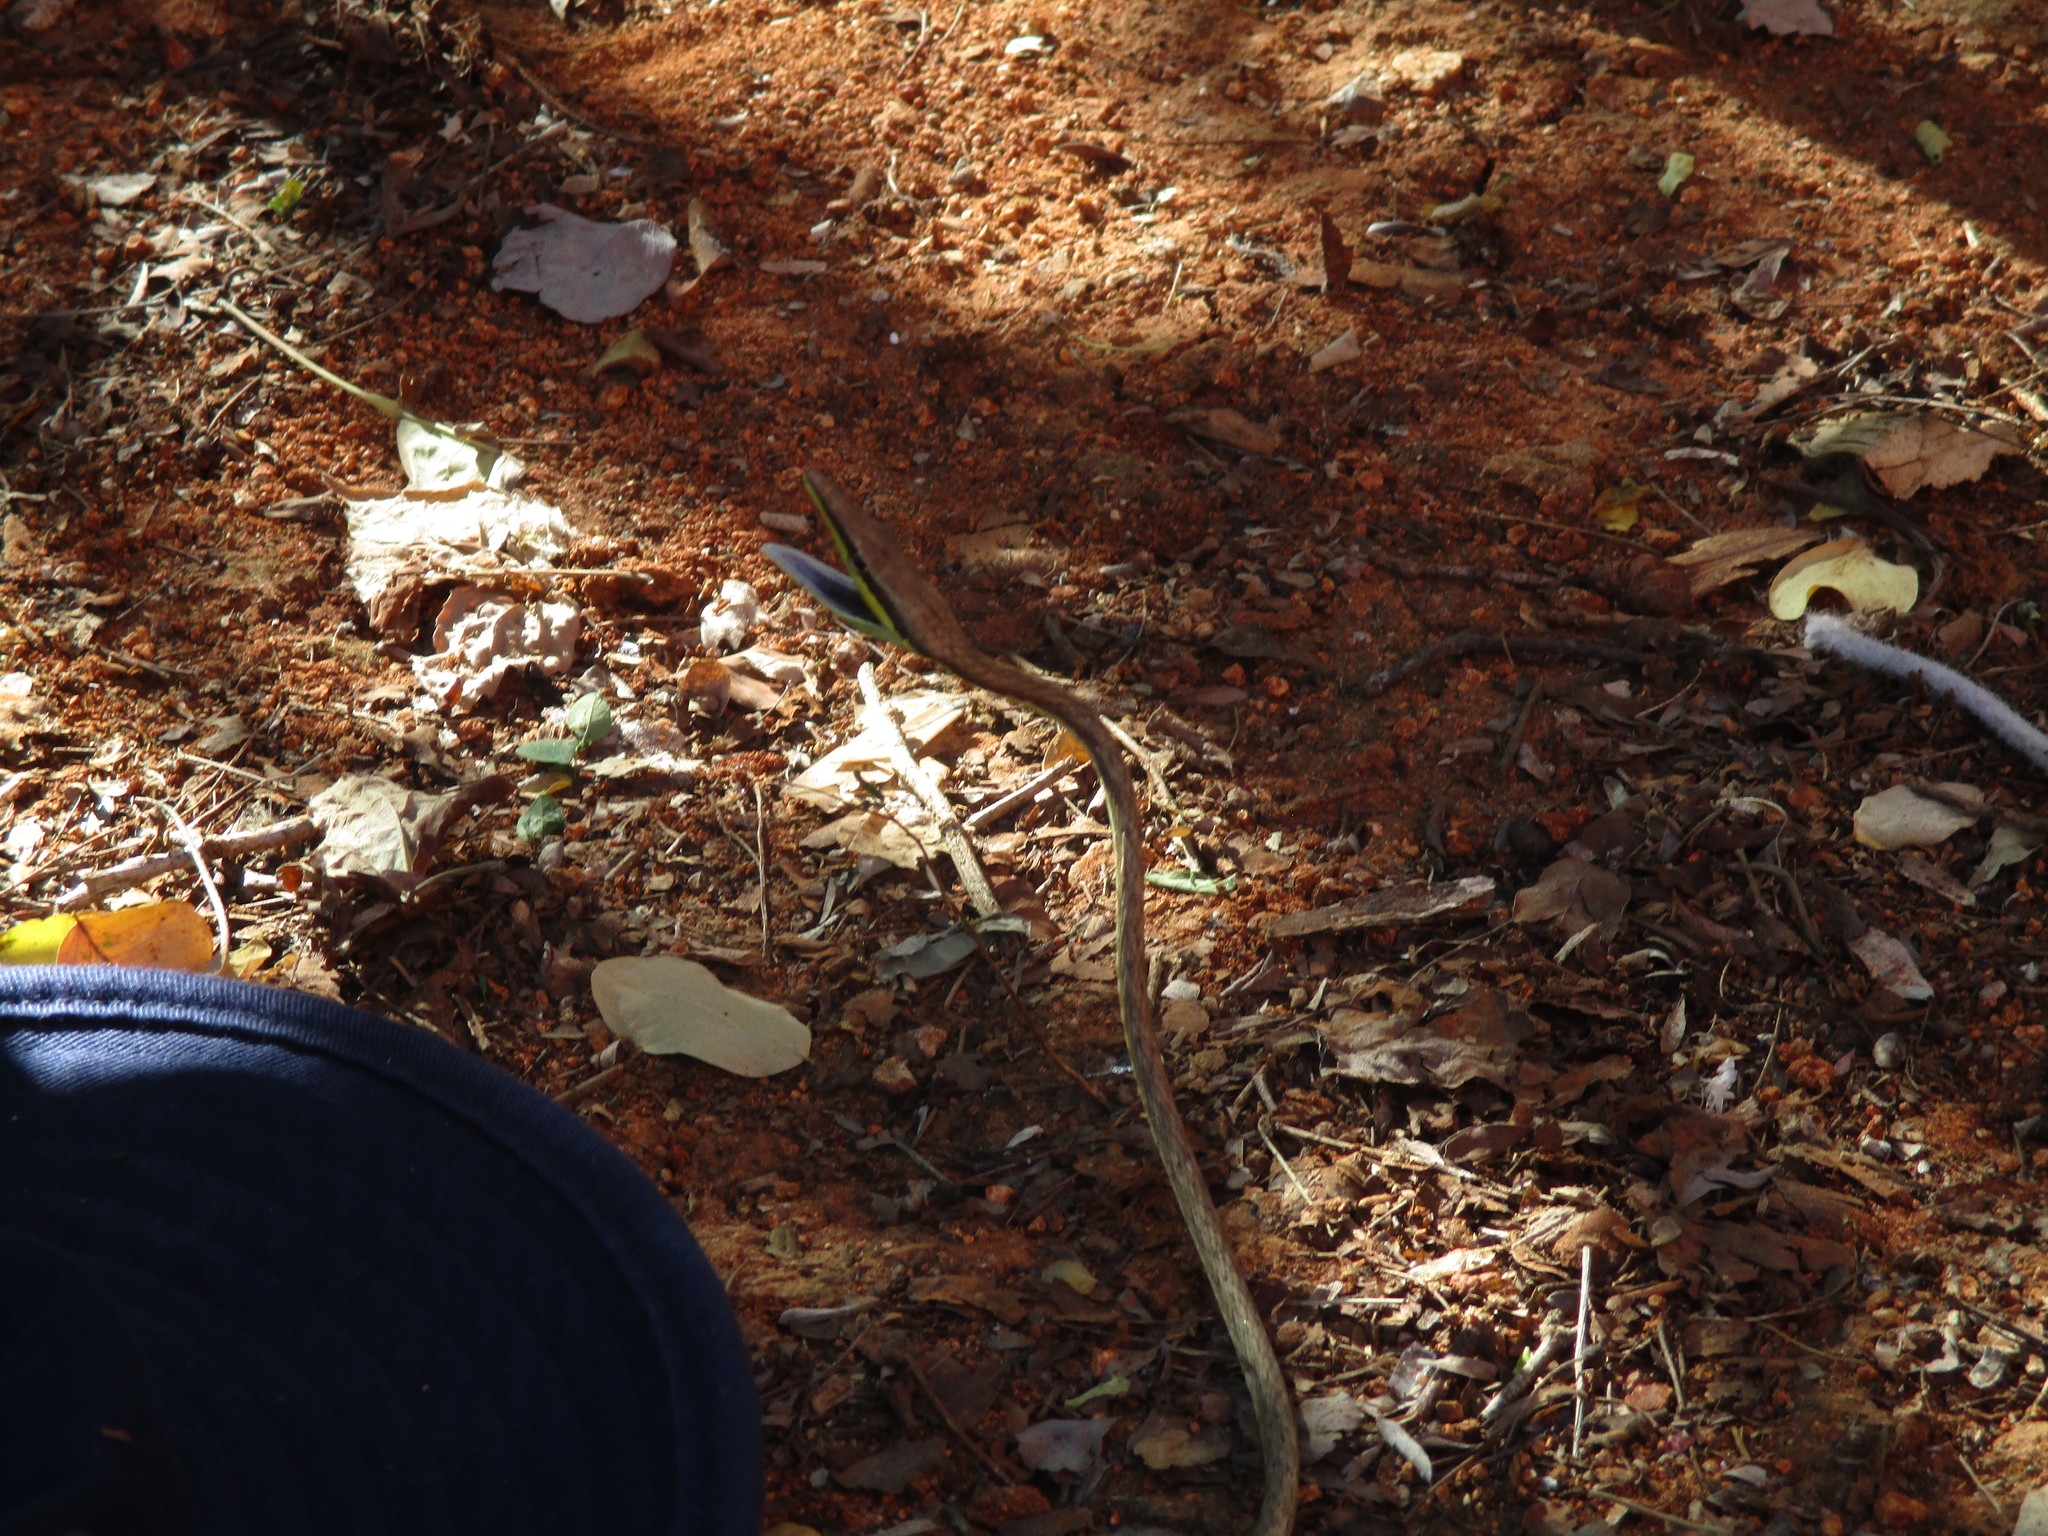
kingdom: Animalia
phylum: Chordata
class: Squamata
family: Colubridae
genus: Oxybelis
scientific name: Oxybelis microphthalmus
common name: Thrornscrub vine snake
